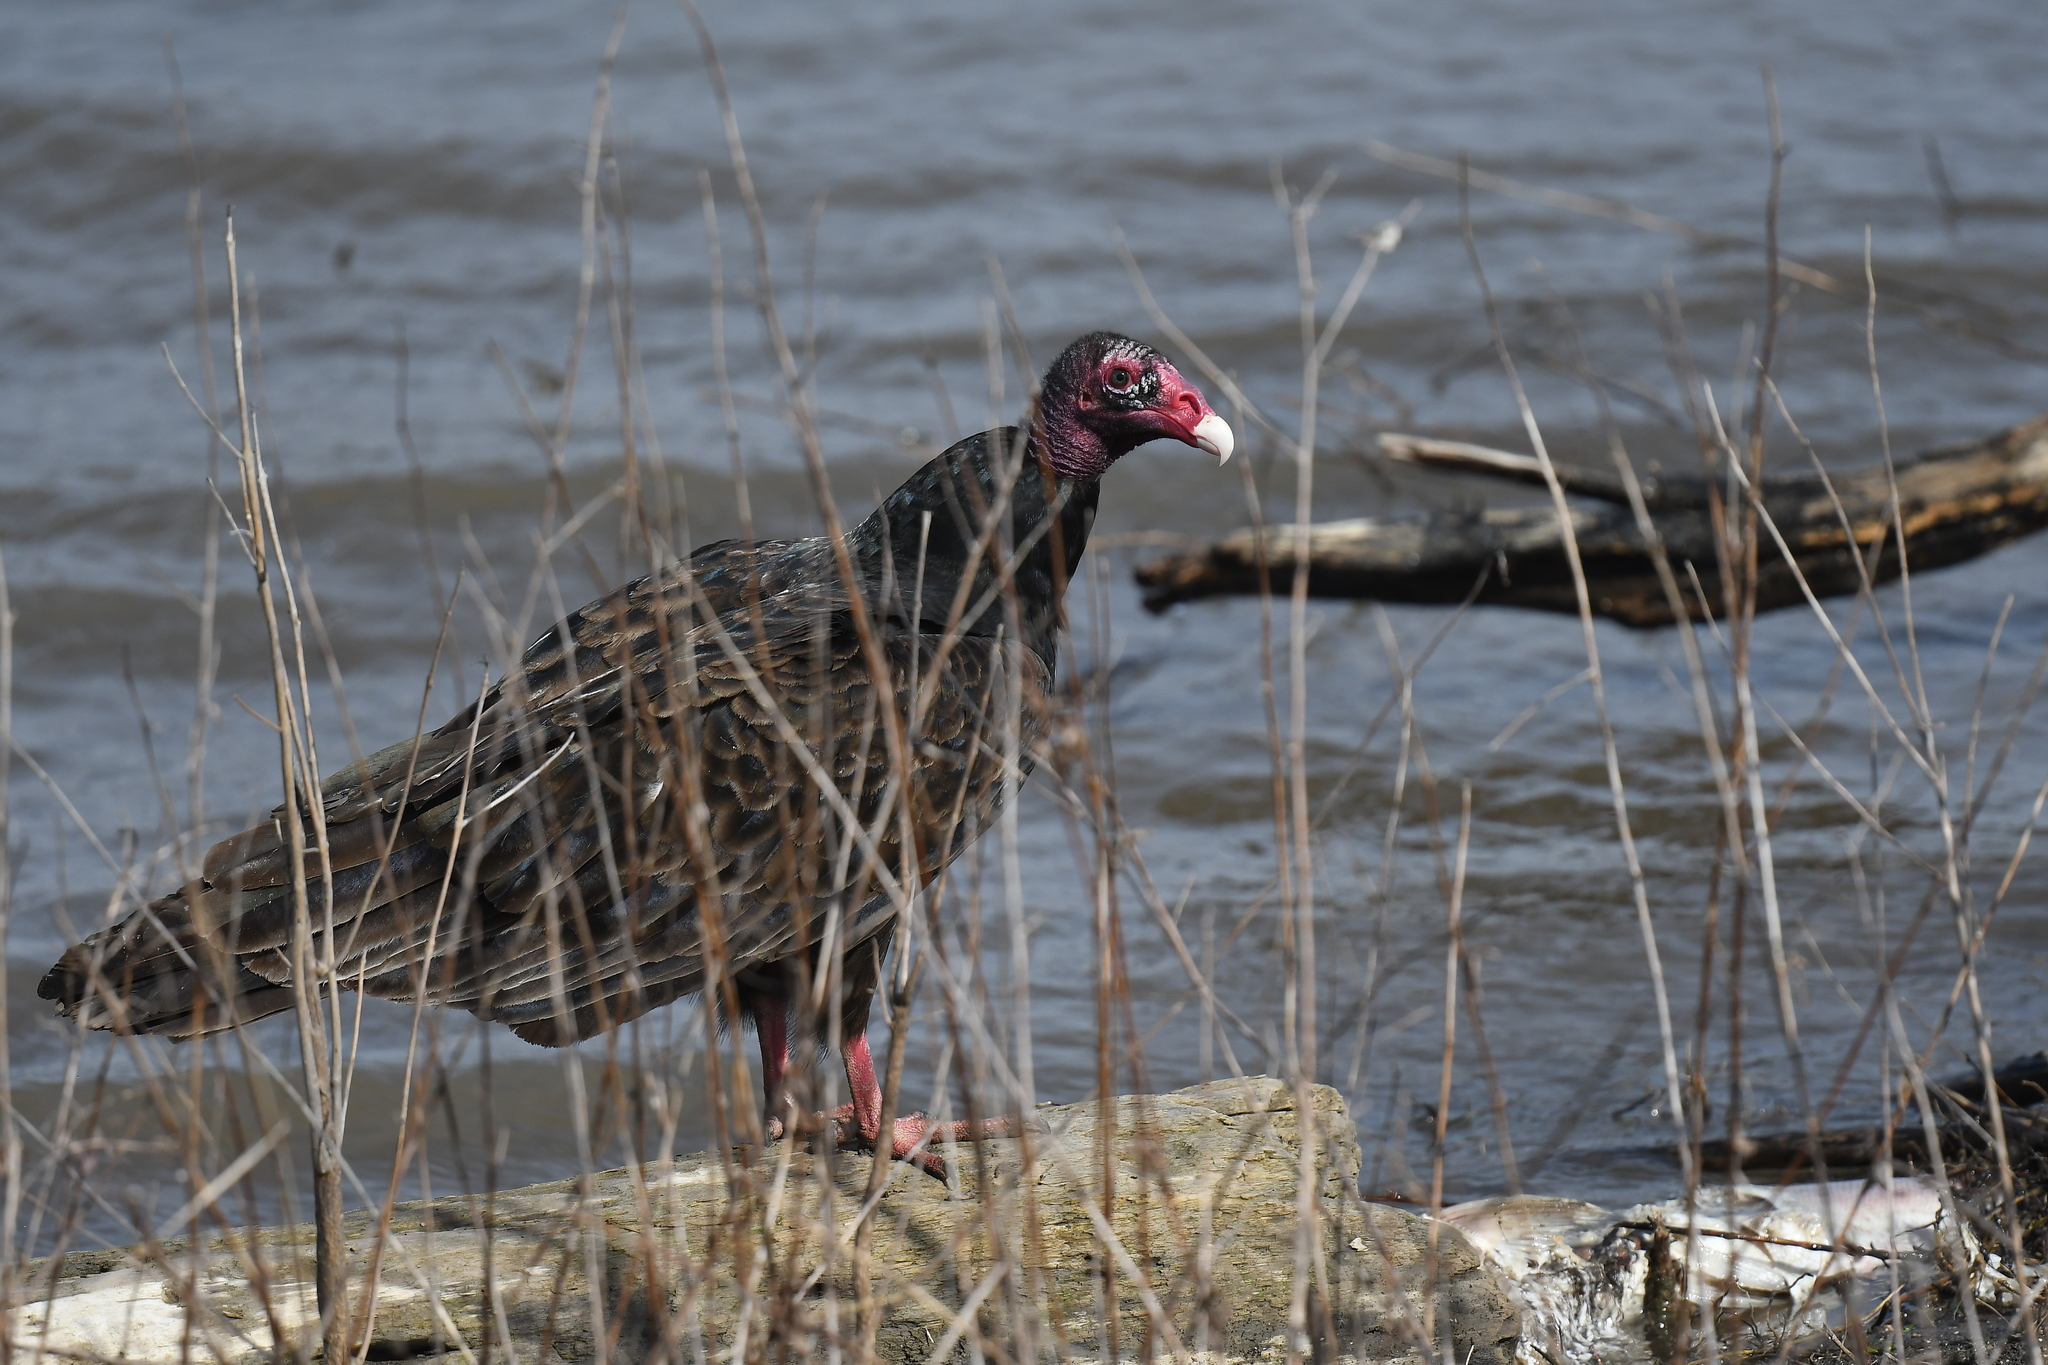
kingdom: Animalia
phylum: Chordata
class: Aves
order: Accipitriformes
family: Cathartidae
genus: Cathartes
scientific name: Cathartes aura
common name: Turkey vulture
